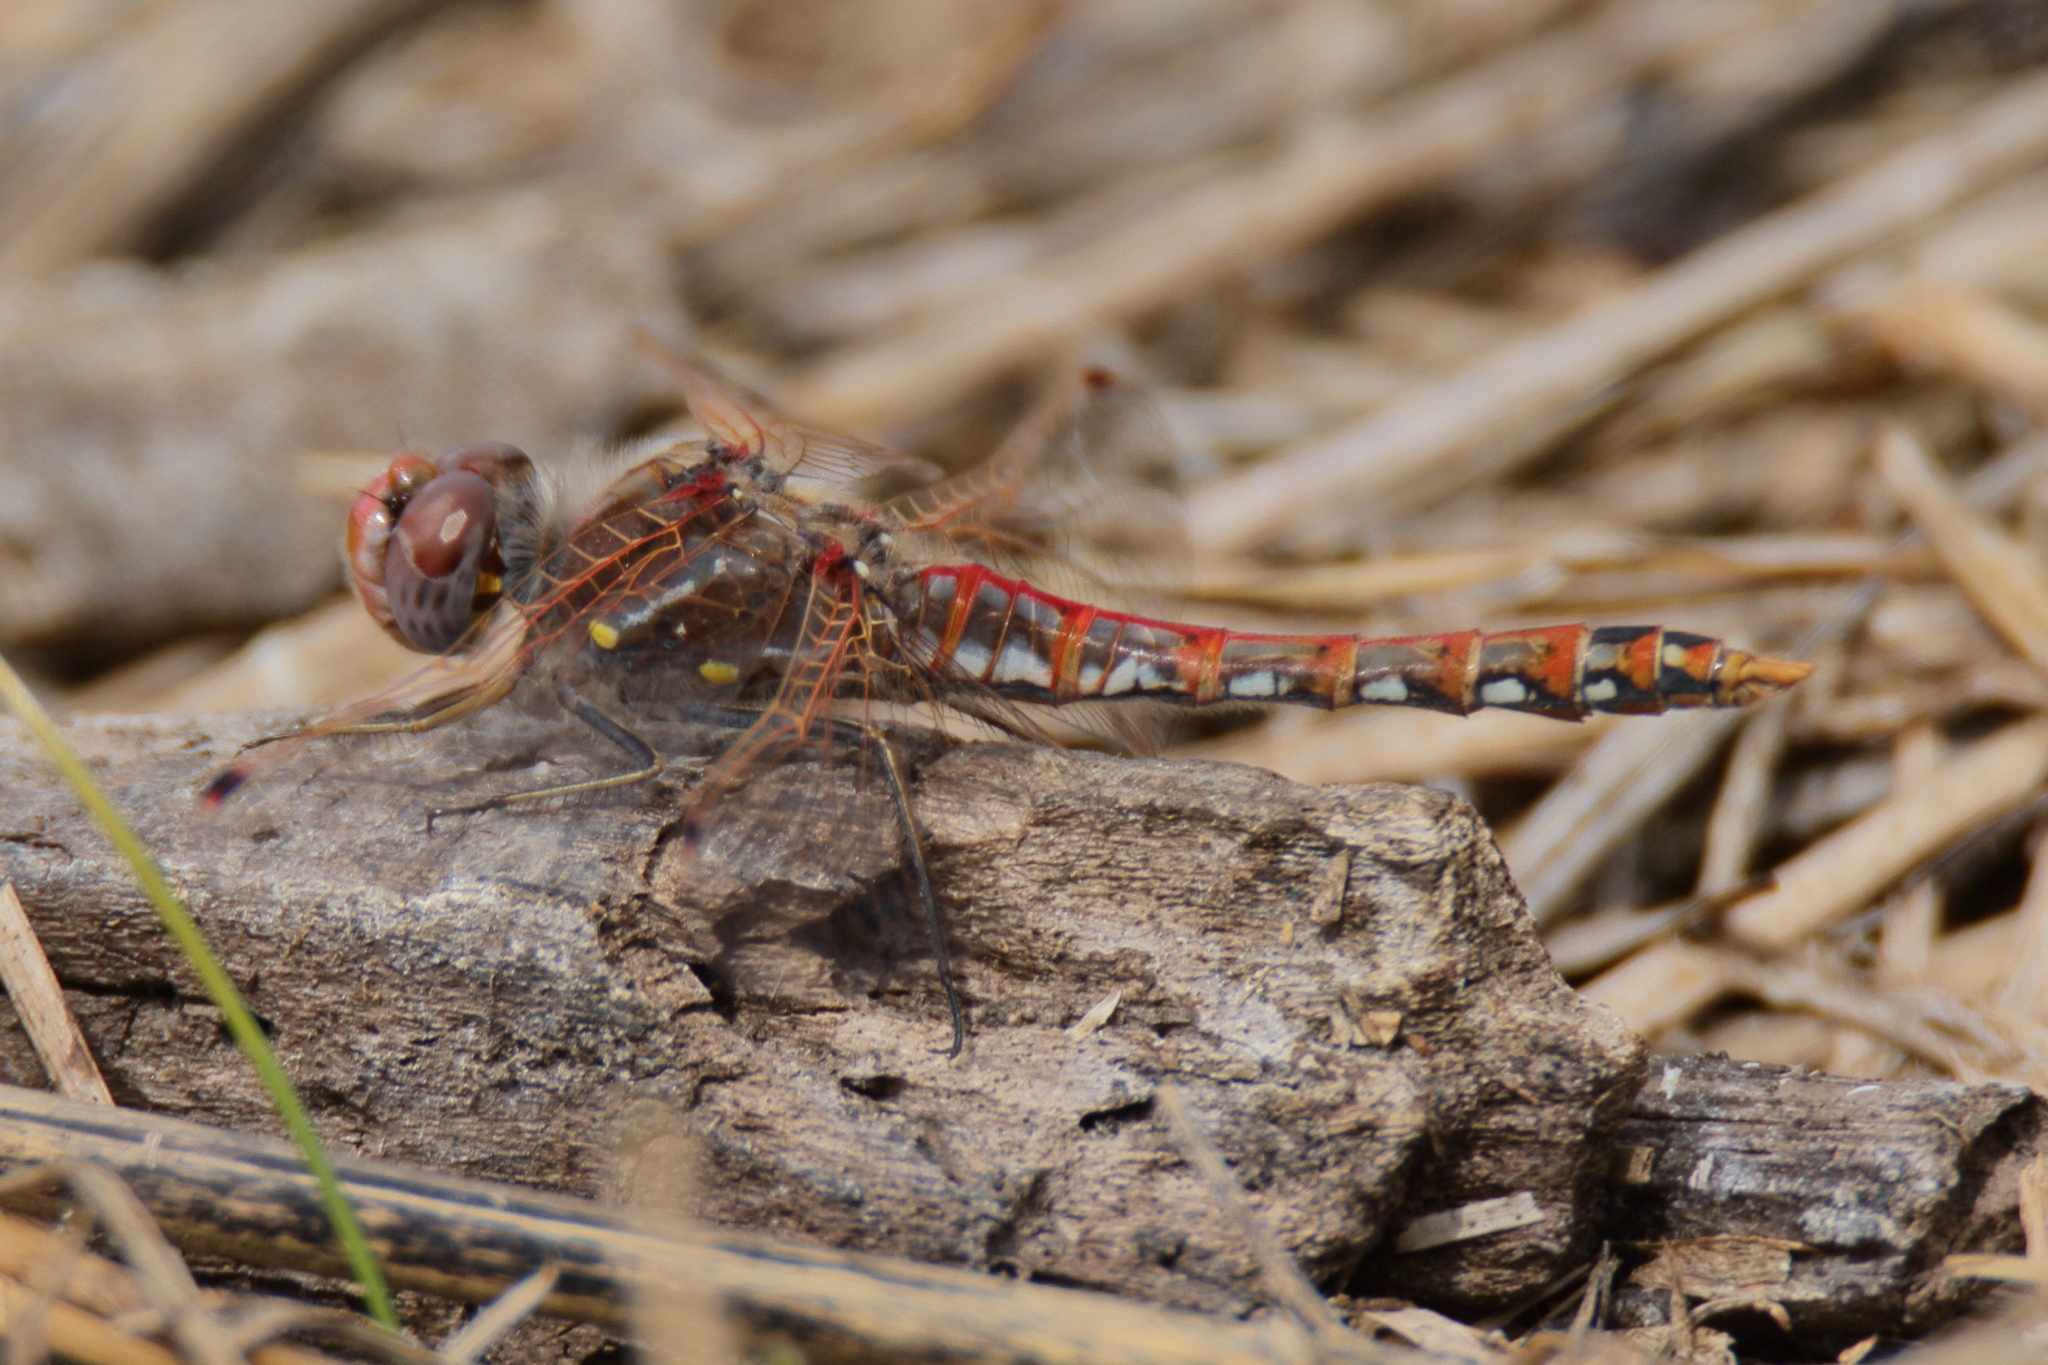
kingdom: Animalia
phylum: Arthropoda
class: Insecta
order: Odonata
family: Libellulidae
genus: Sympetrum
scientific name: Sympetrum corruptum
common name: Variegated meadowhawk
